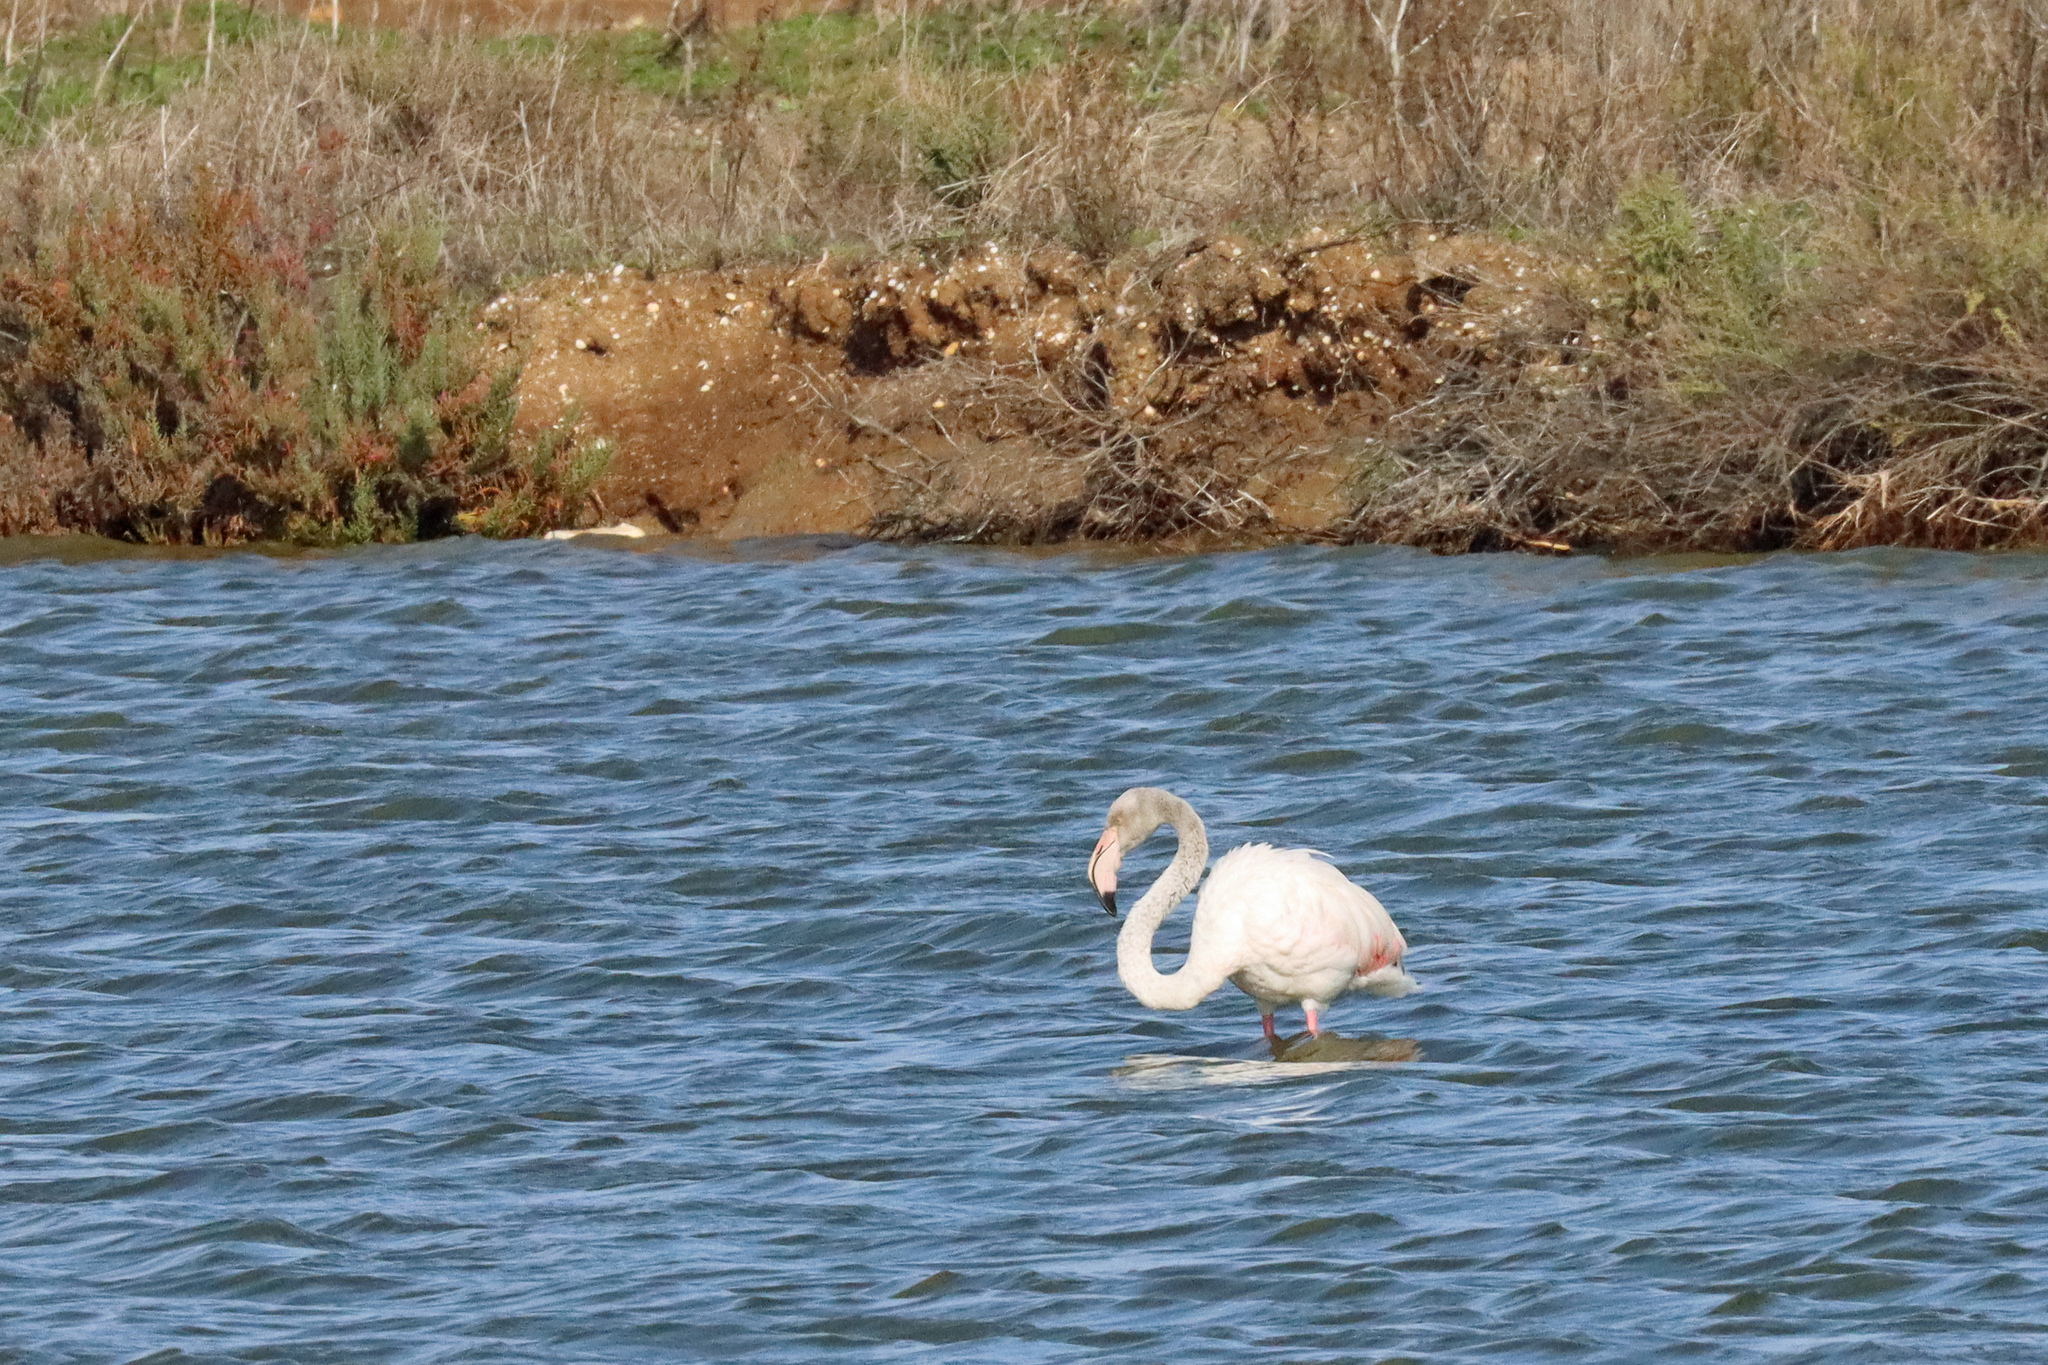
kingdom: Animalia
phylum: Chordata
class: Aves
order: Phoenicopteriformes
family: Phoenicopteridae
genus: Phoenicopterus
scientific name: Phoenicopterus roseus
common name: Greater flamingo
